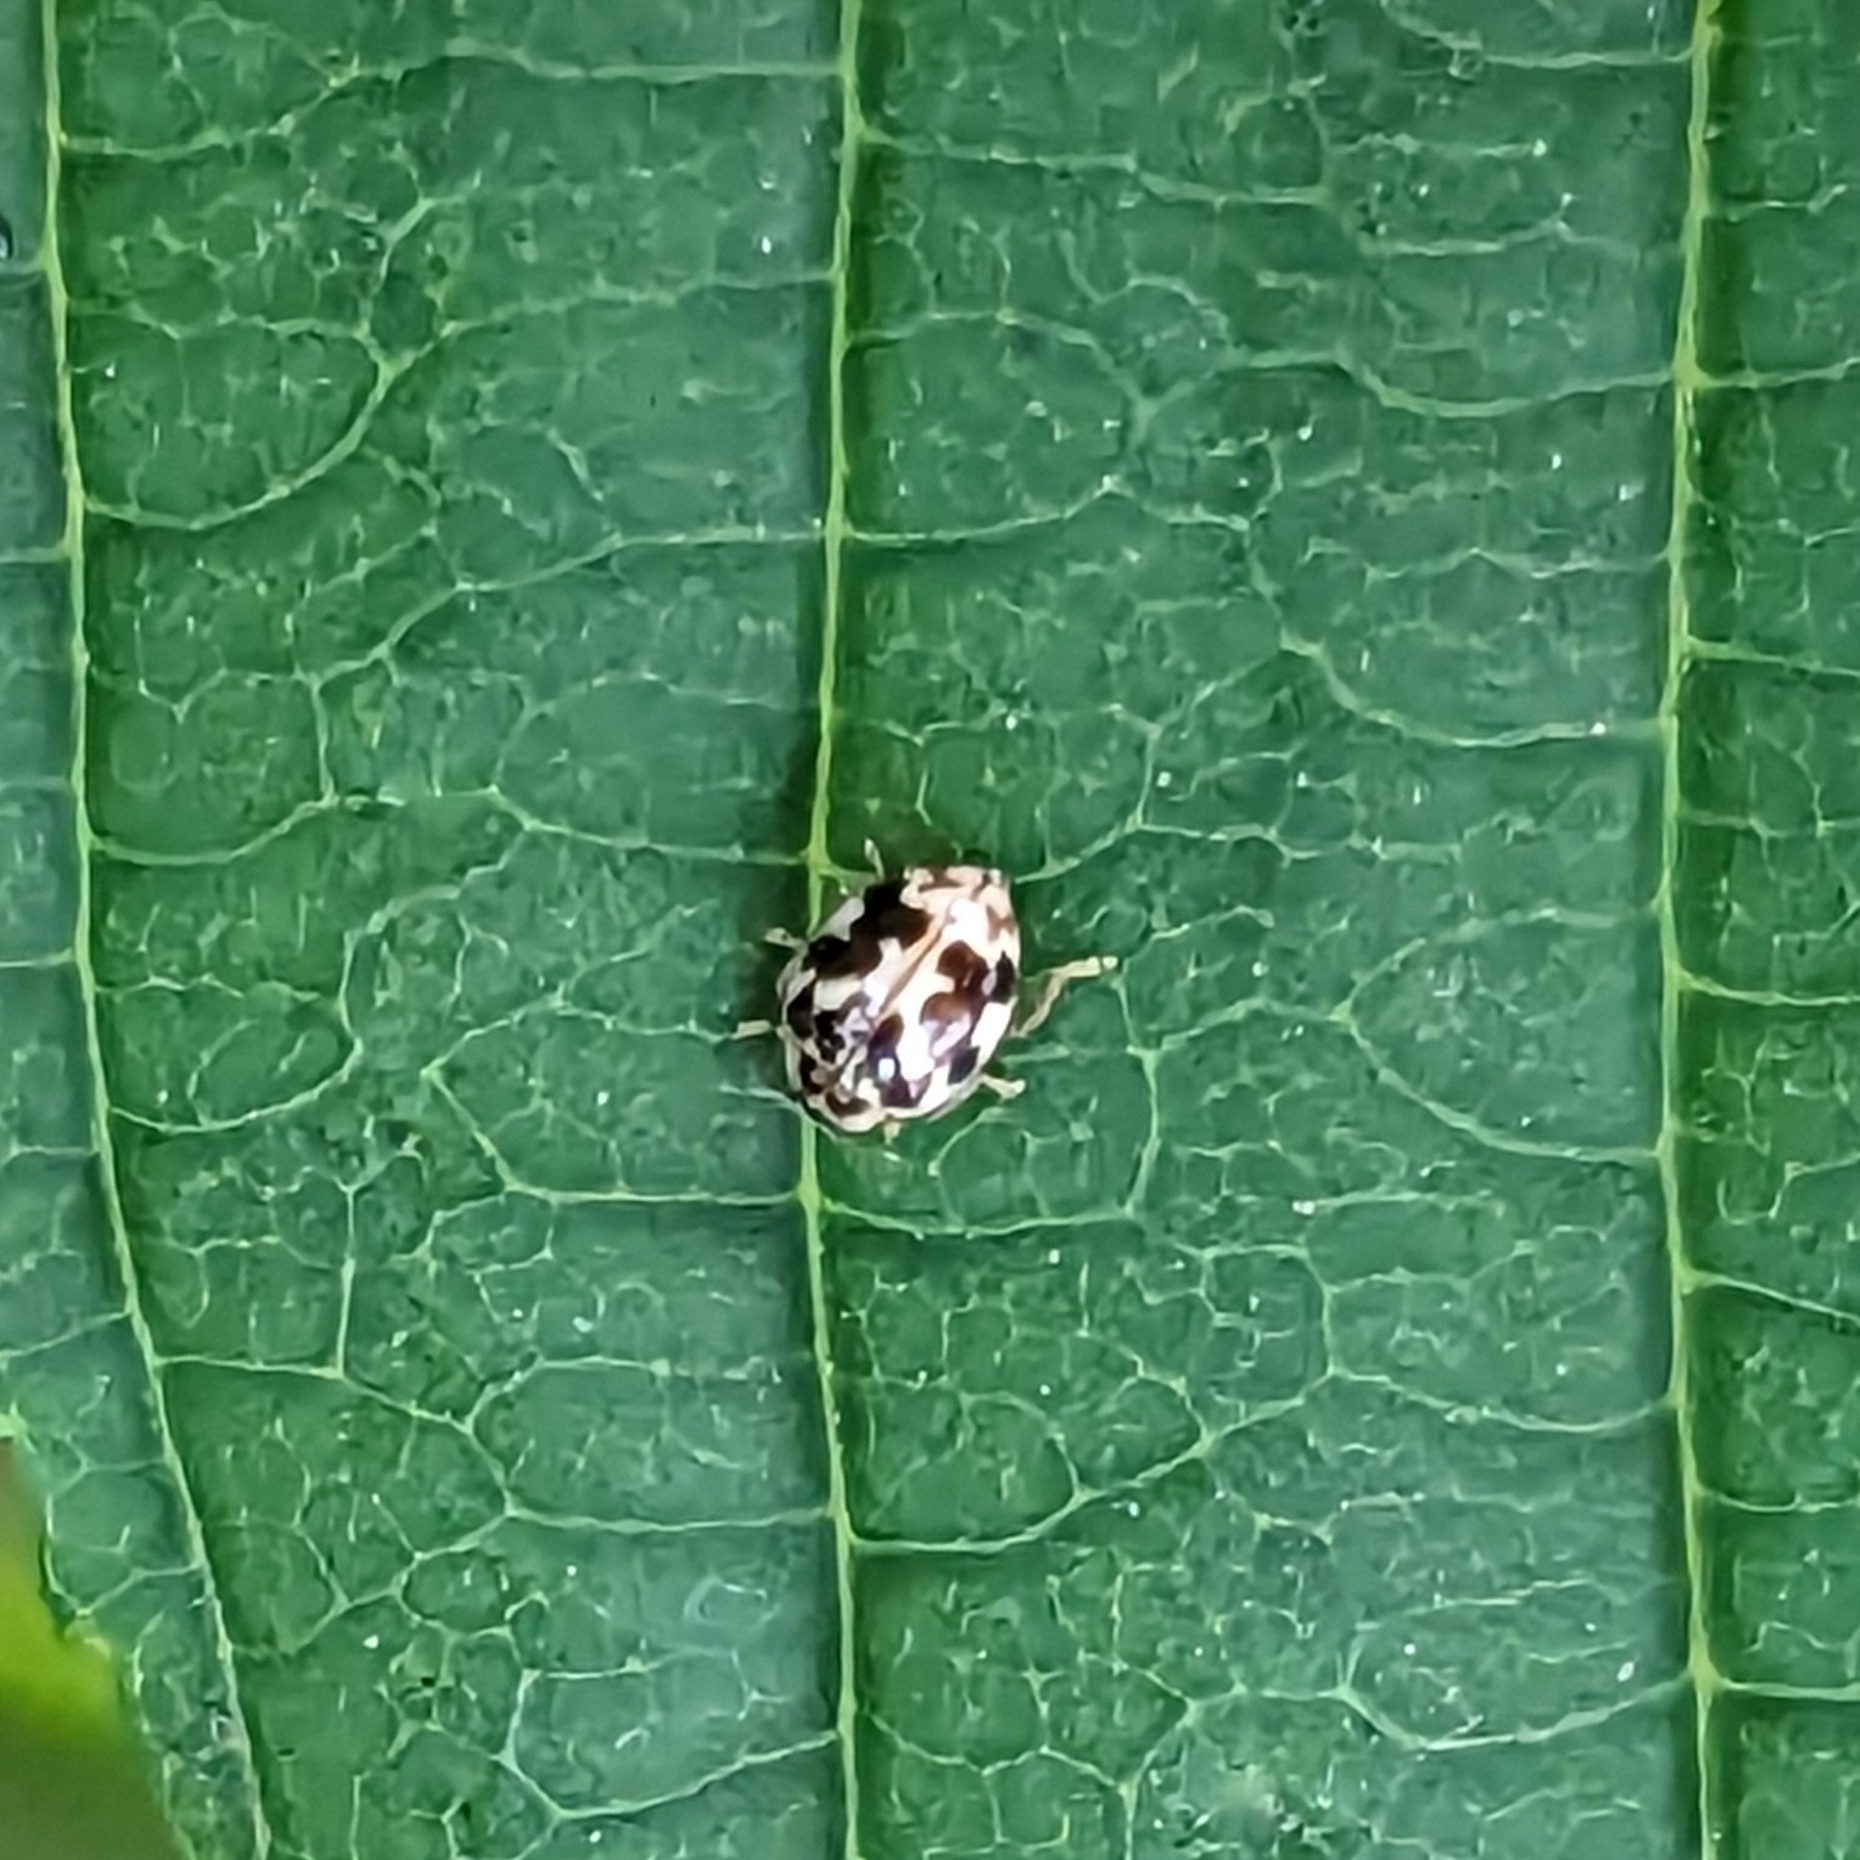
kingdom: Animalia
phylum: Arthropoda
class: Insecta
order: Coleoptera
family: Coccinellidae
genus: Psyllobora
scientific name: Psyllobora vigintimaculata
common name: Ladybird beetle
